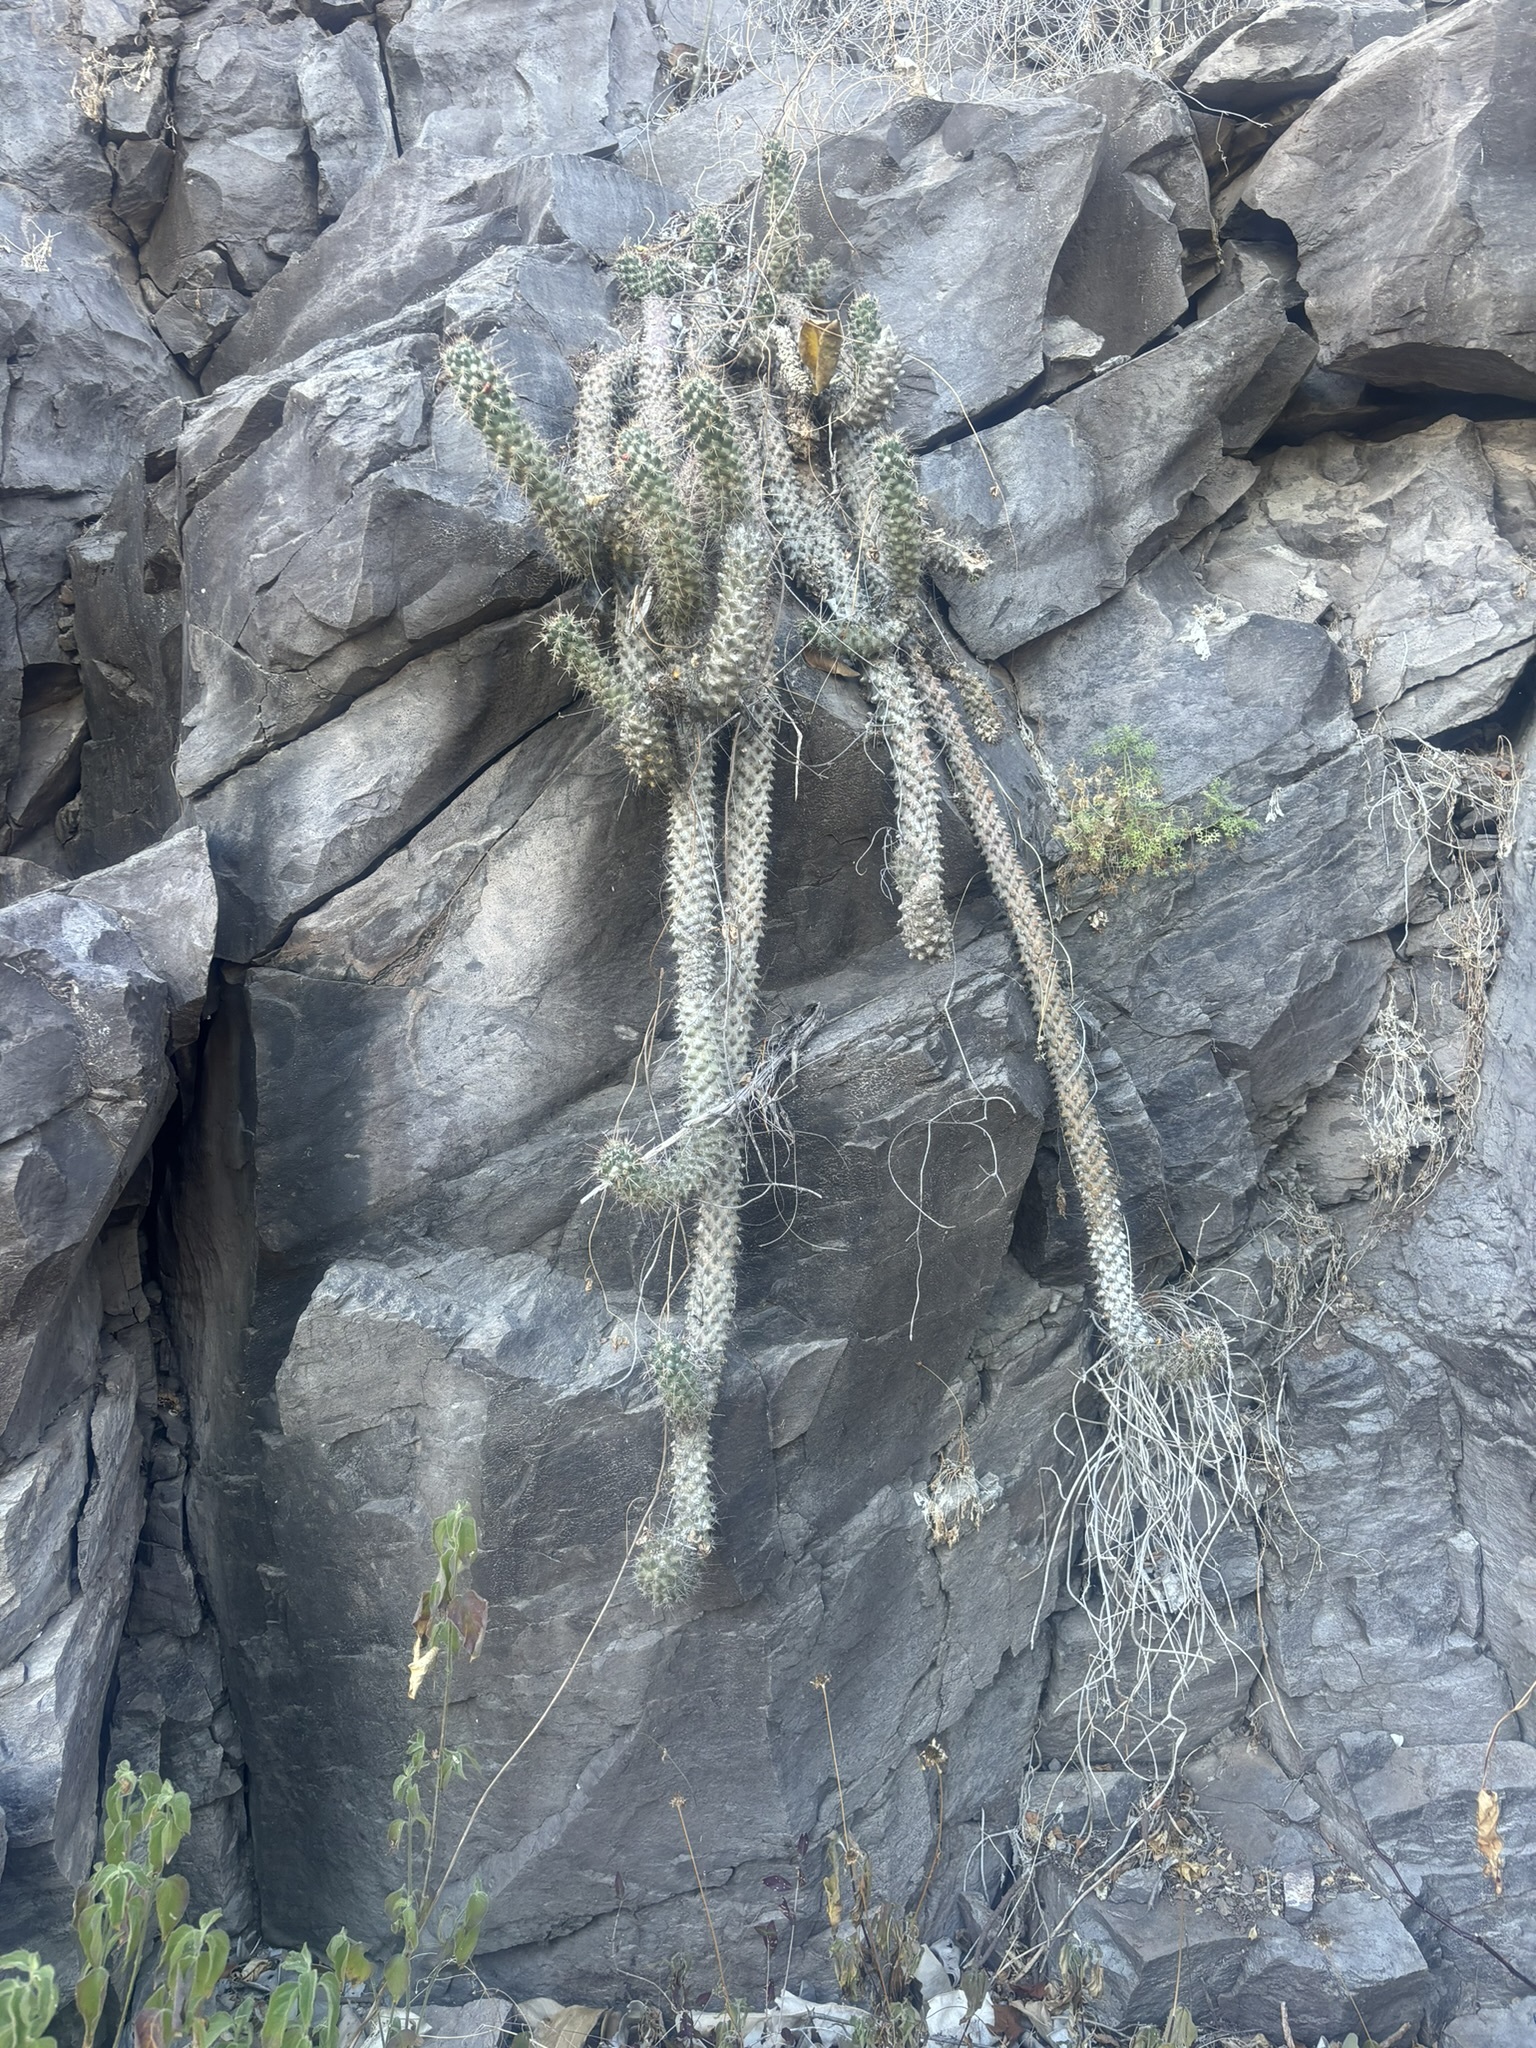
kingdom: Plantae
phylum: Tracheophyta
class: Magnoliopsida
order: Caryophyllales
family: Cactaceae
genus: Cochemiea
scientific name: Cochemiea poselgeri
